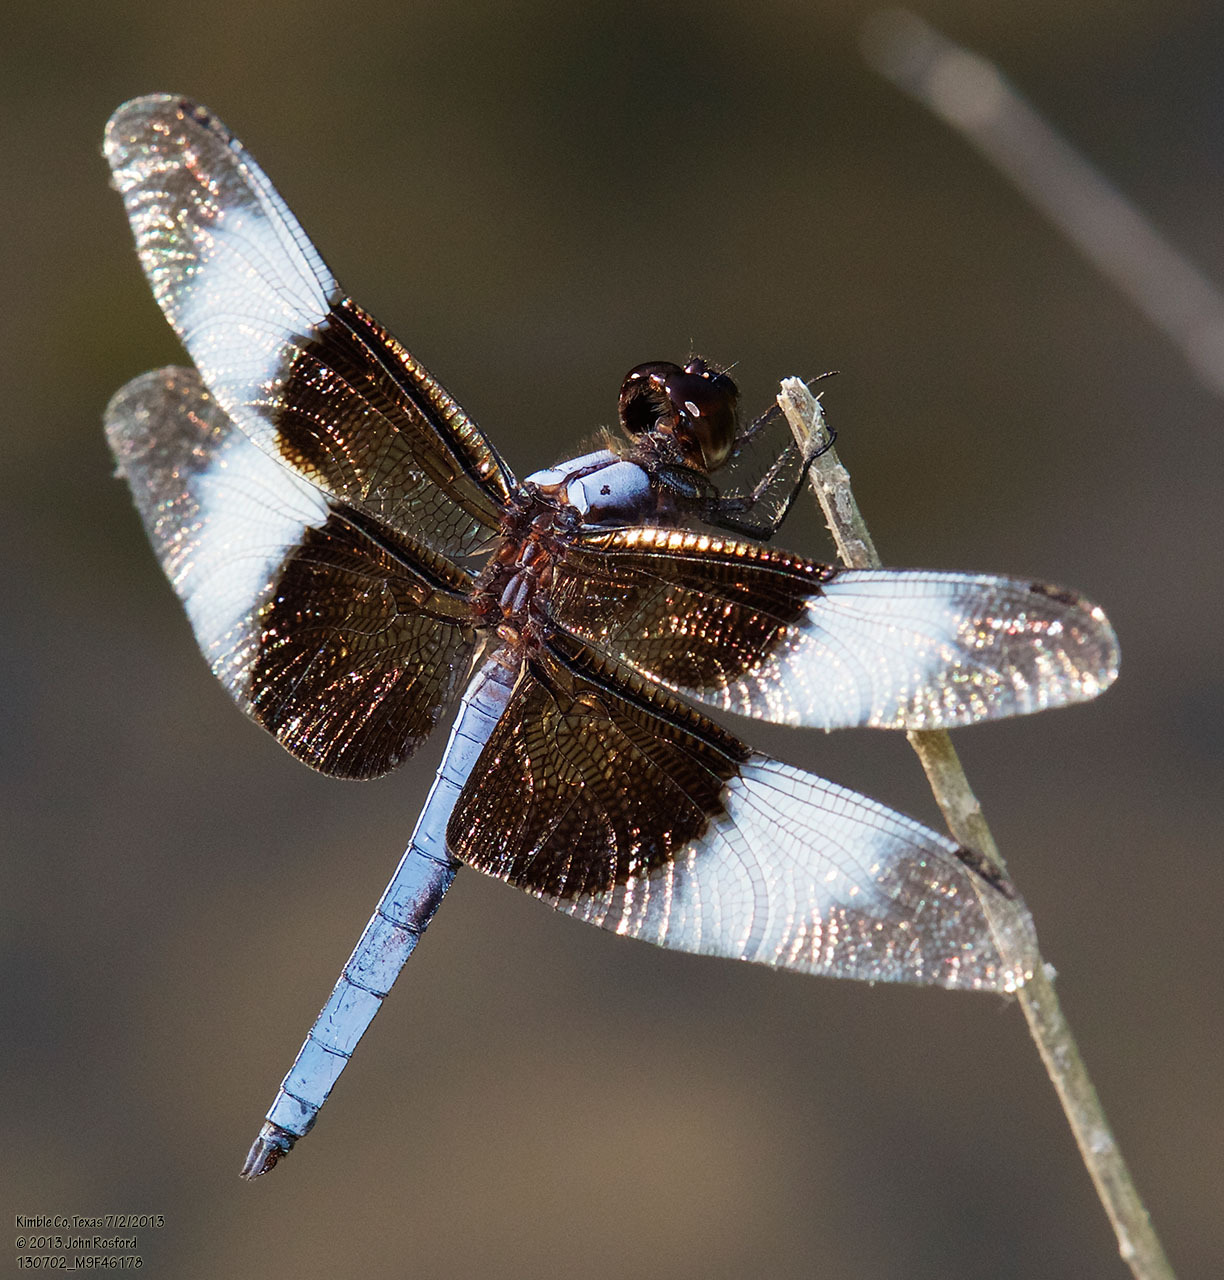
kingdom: Animalia
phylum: Arthropoda
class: Insecta
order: Odonata
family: Libellulidae
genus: Libellula
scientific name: Libellula luctuosa
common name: Widow skimmer
